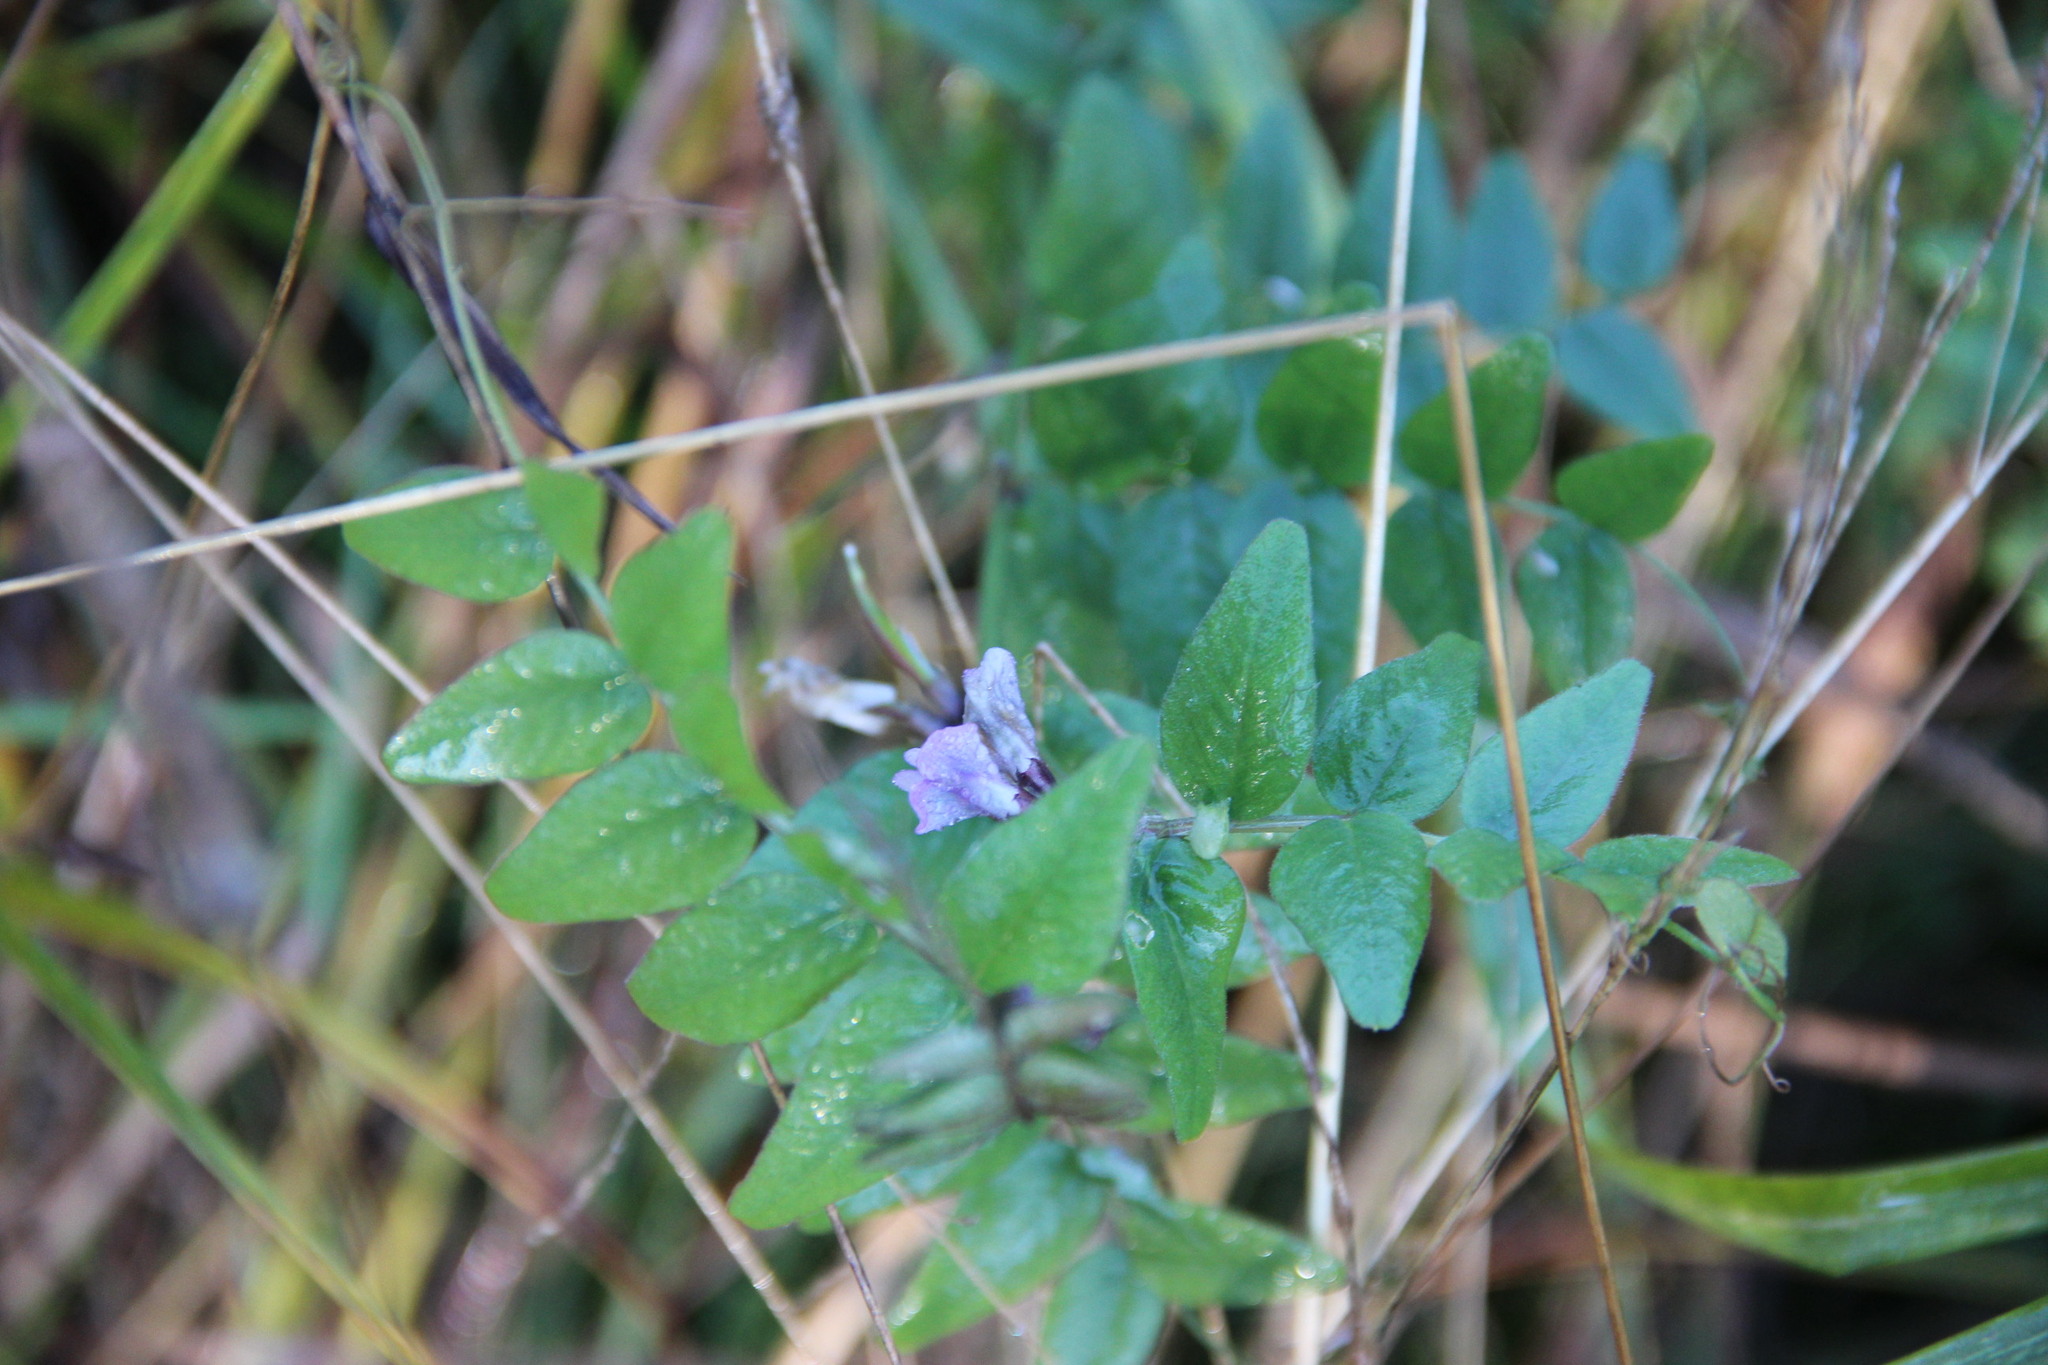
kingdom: Plantae
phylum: Tracheophyta
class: Magnoliopsida
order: Fabales
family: Fabaceae
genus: Vicia
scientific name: Vicia sepium
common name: Bush vetch
